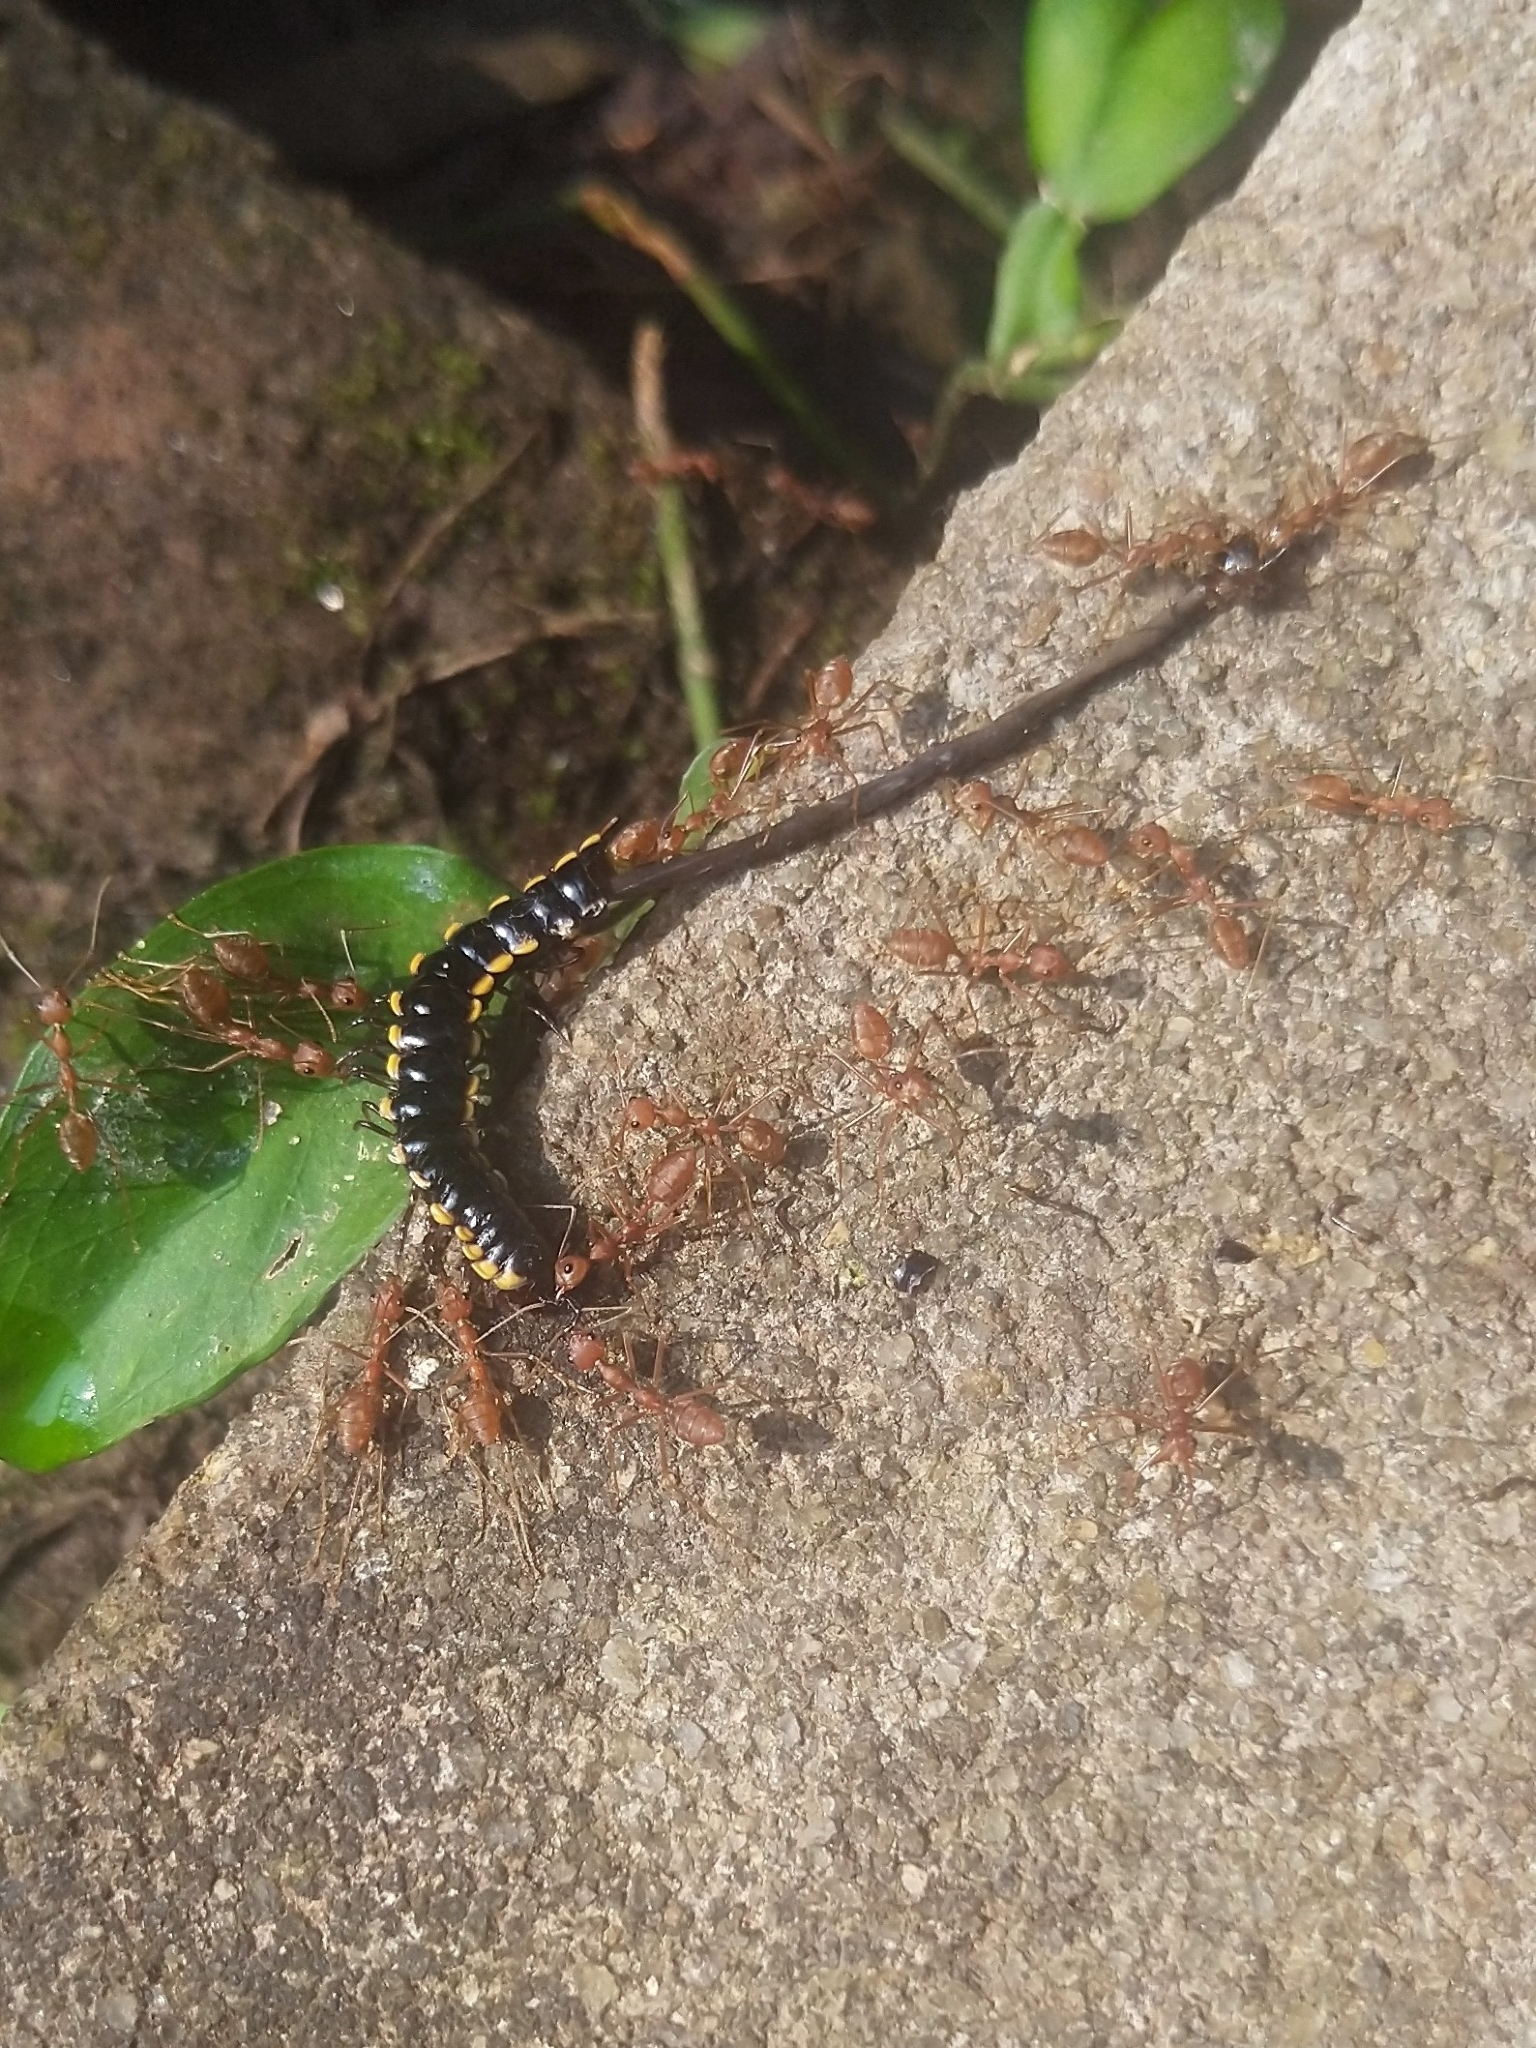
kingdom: Animalia
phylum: Arthropoda
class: Insecta
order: Hymenoptera
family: Formicidae
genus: Oecophylla
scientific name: Oecophylla smaragdina
